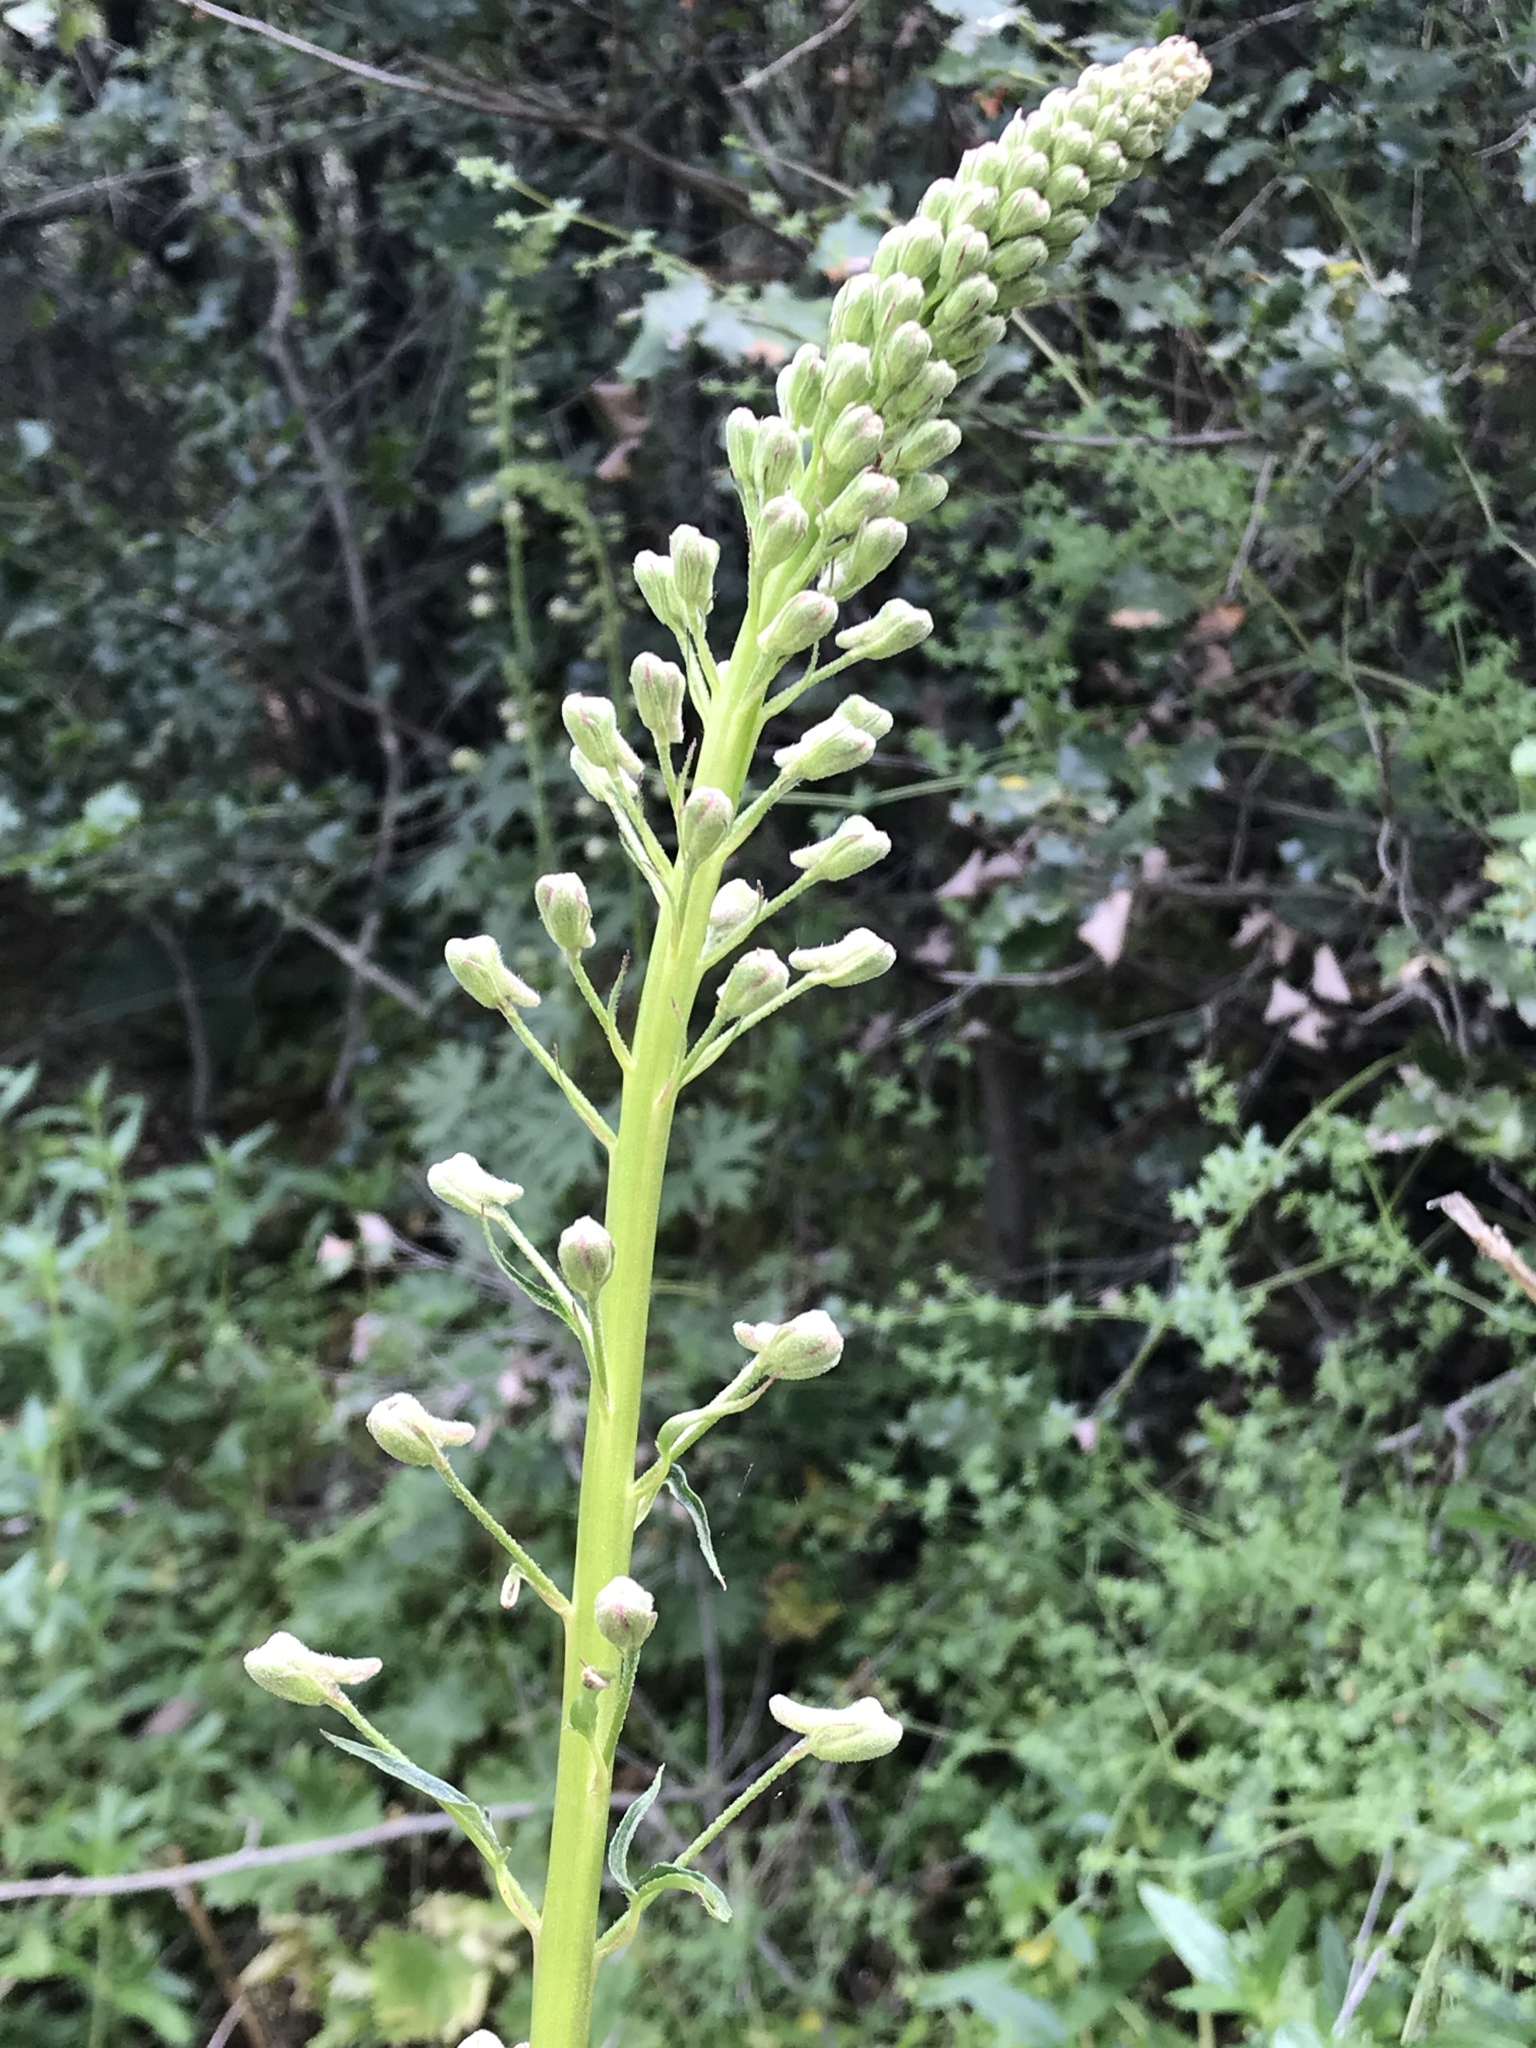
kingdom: Plantae
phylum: Tracheophyta
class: Magnoliopsida
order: Ranunculales
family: Ranunculaceae
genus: Delphinium
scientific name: Delphinium californicum
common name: California larkspur
